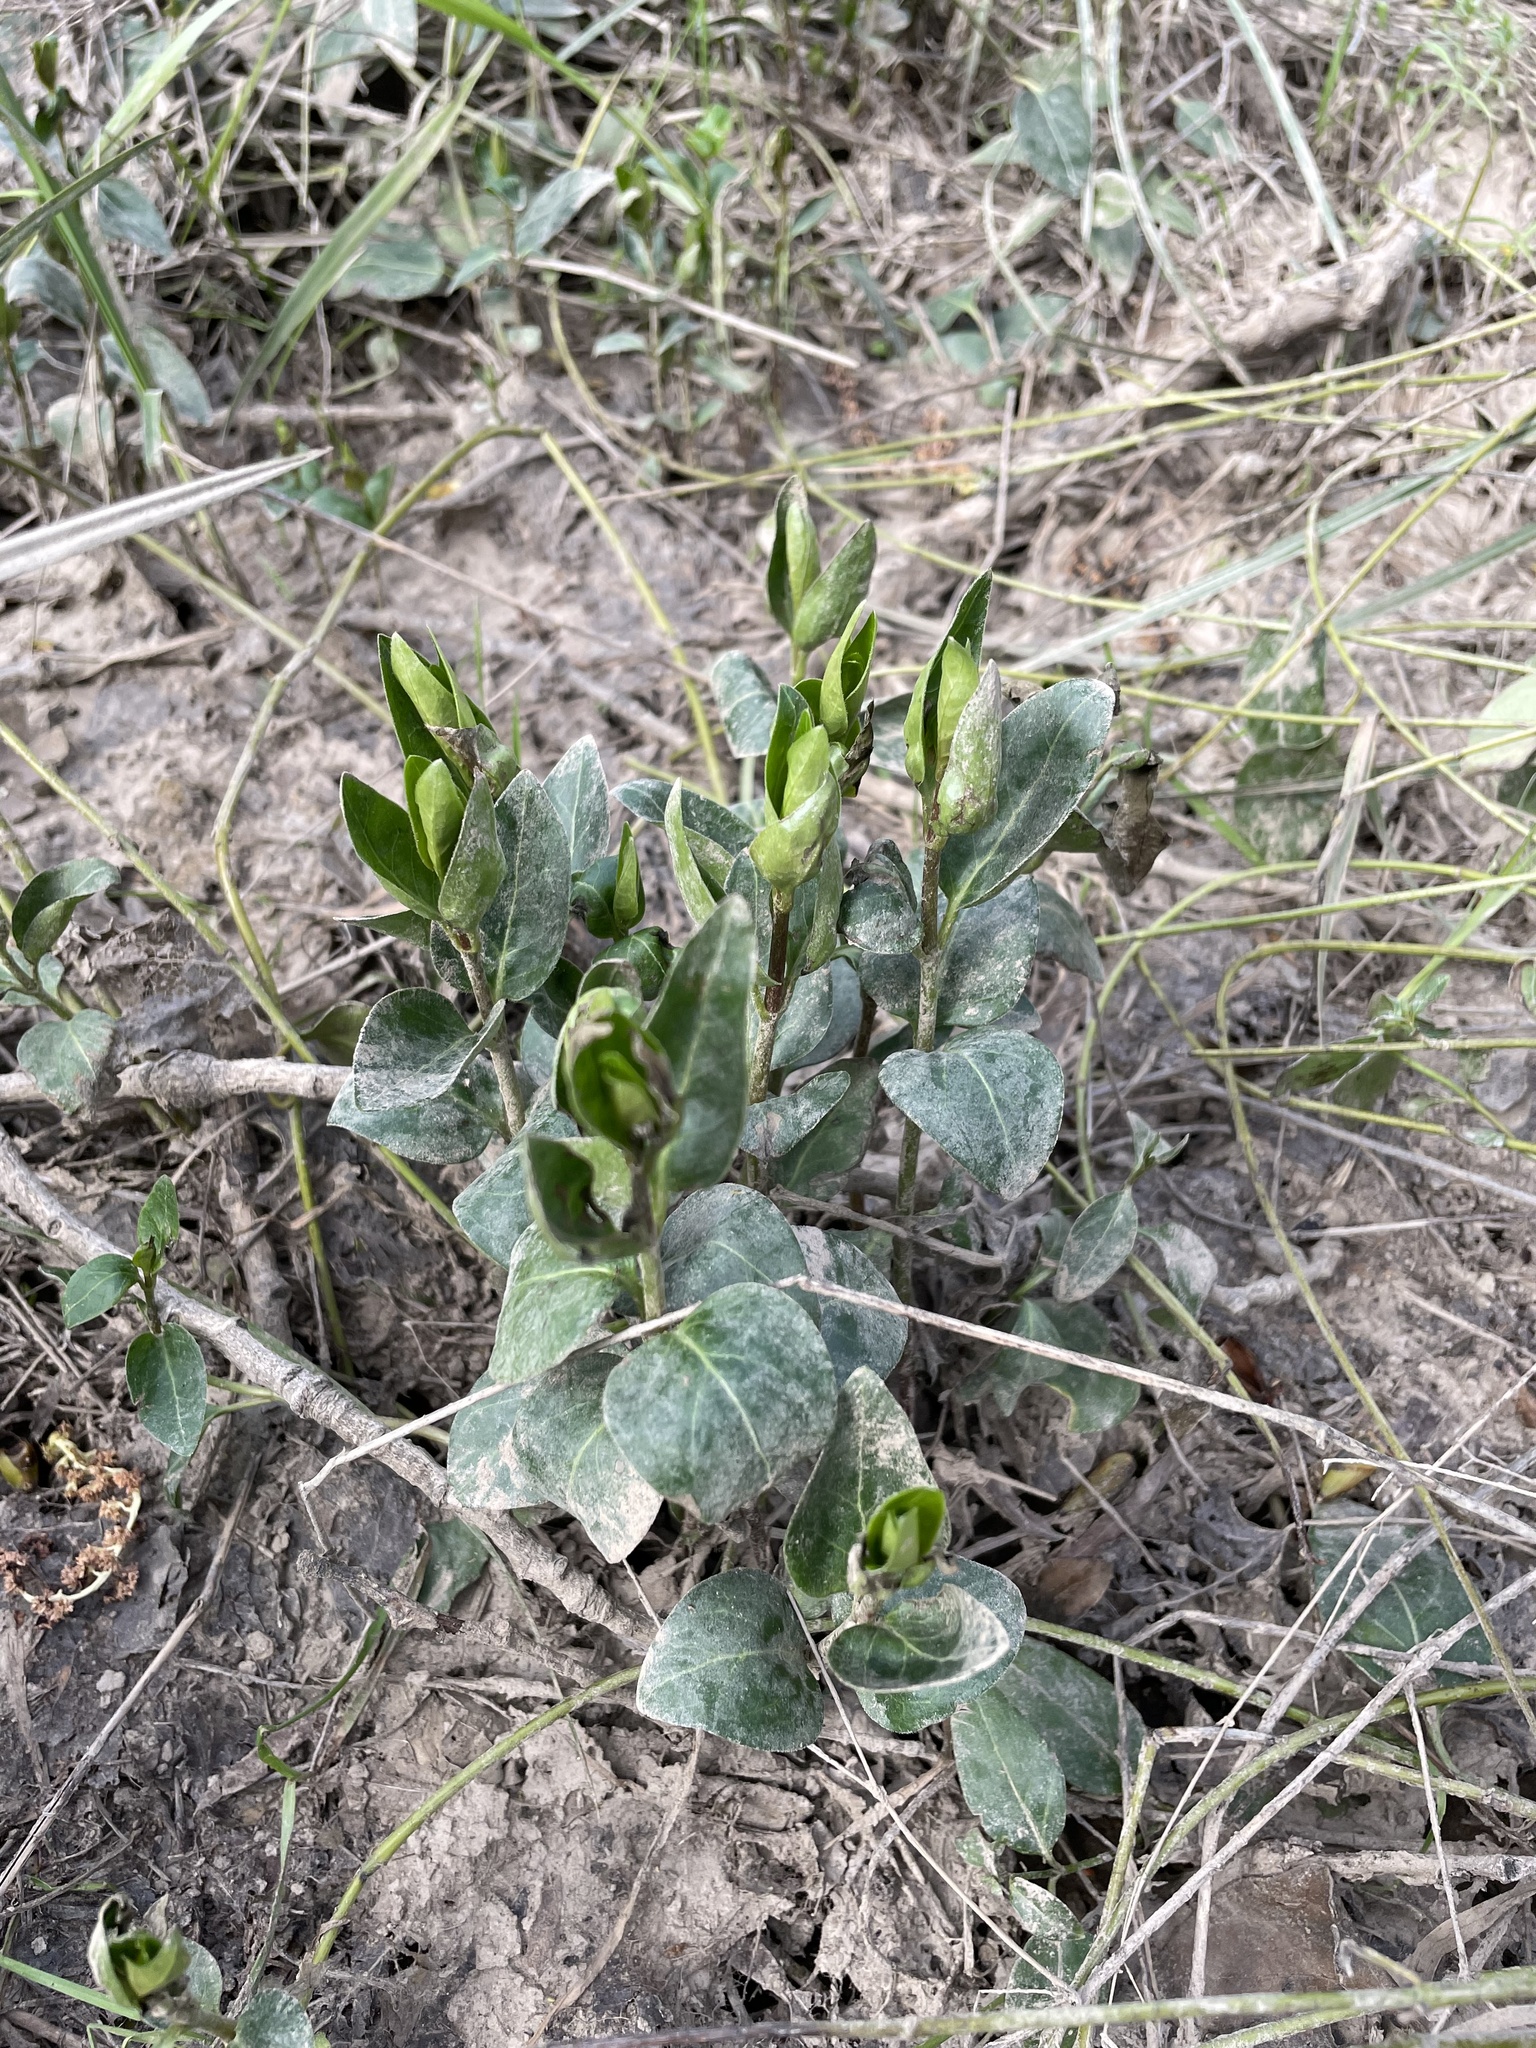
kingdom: Plantae
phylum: Tracheophyta
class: Magnoliopsida
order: Gentianales
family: Apocynaceae
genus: Vinca
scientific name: Vinca major
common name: Greater periwinkle
